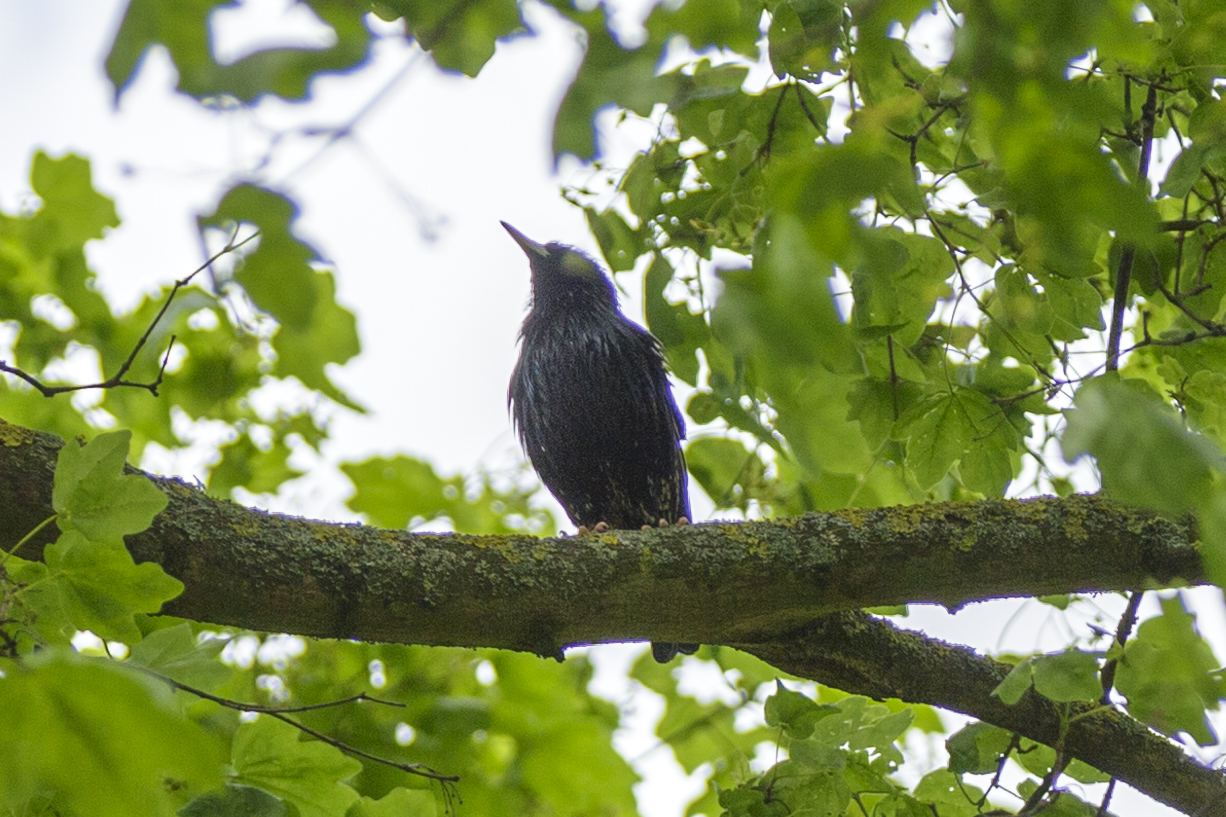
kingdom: Animalia
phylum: Chordata
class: Aves
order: Passeriformes
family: Sturnidae
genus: Sturnus
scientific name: Sturnus vulgaris
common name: Common starling
